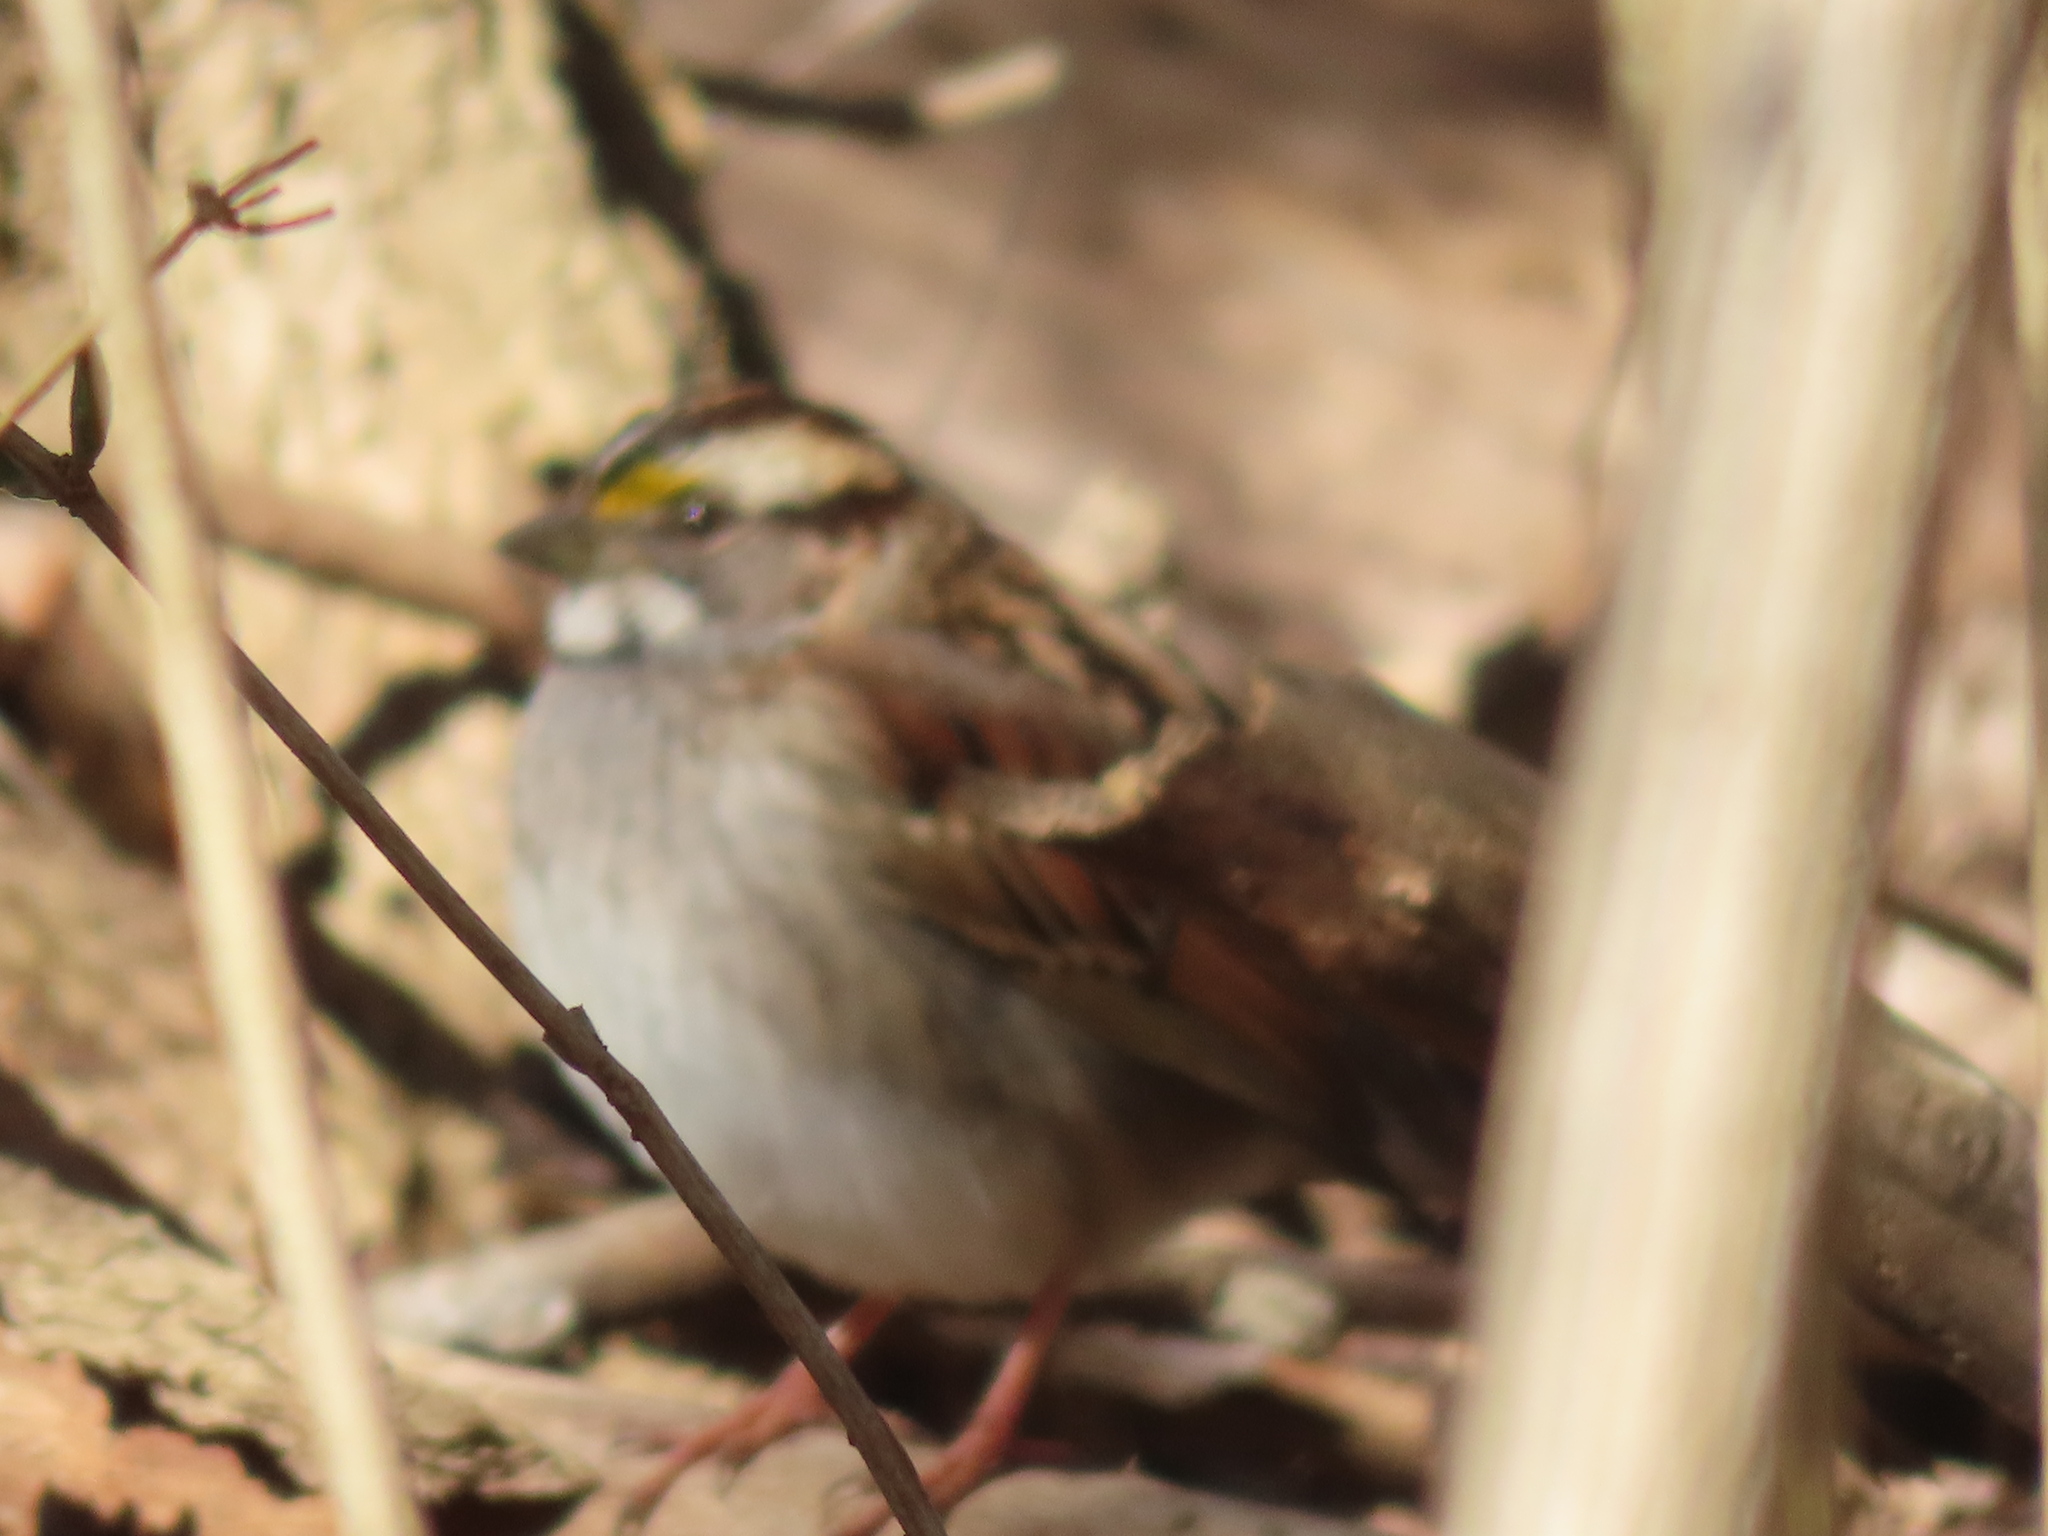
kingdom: Animalia
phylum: Chordata
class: Aves
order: Passeriformes
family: Passerellidae
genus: Zonotrichia
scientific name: Zonotrichia albicollis
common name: White-throated sparrow
